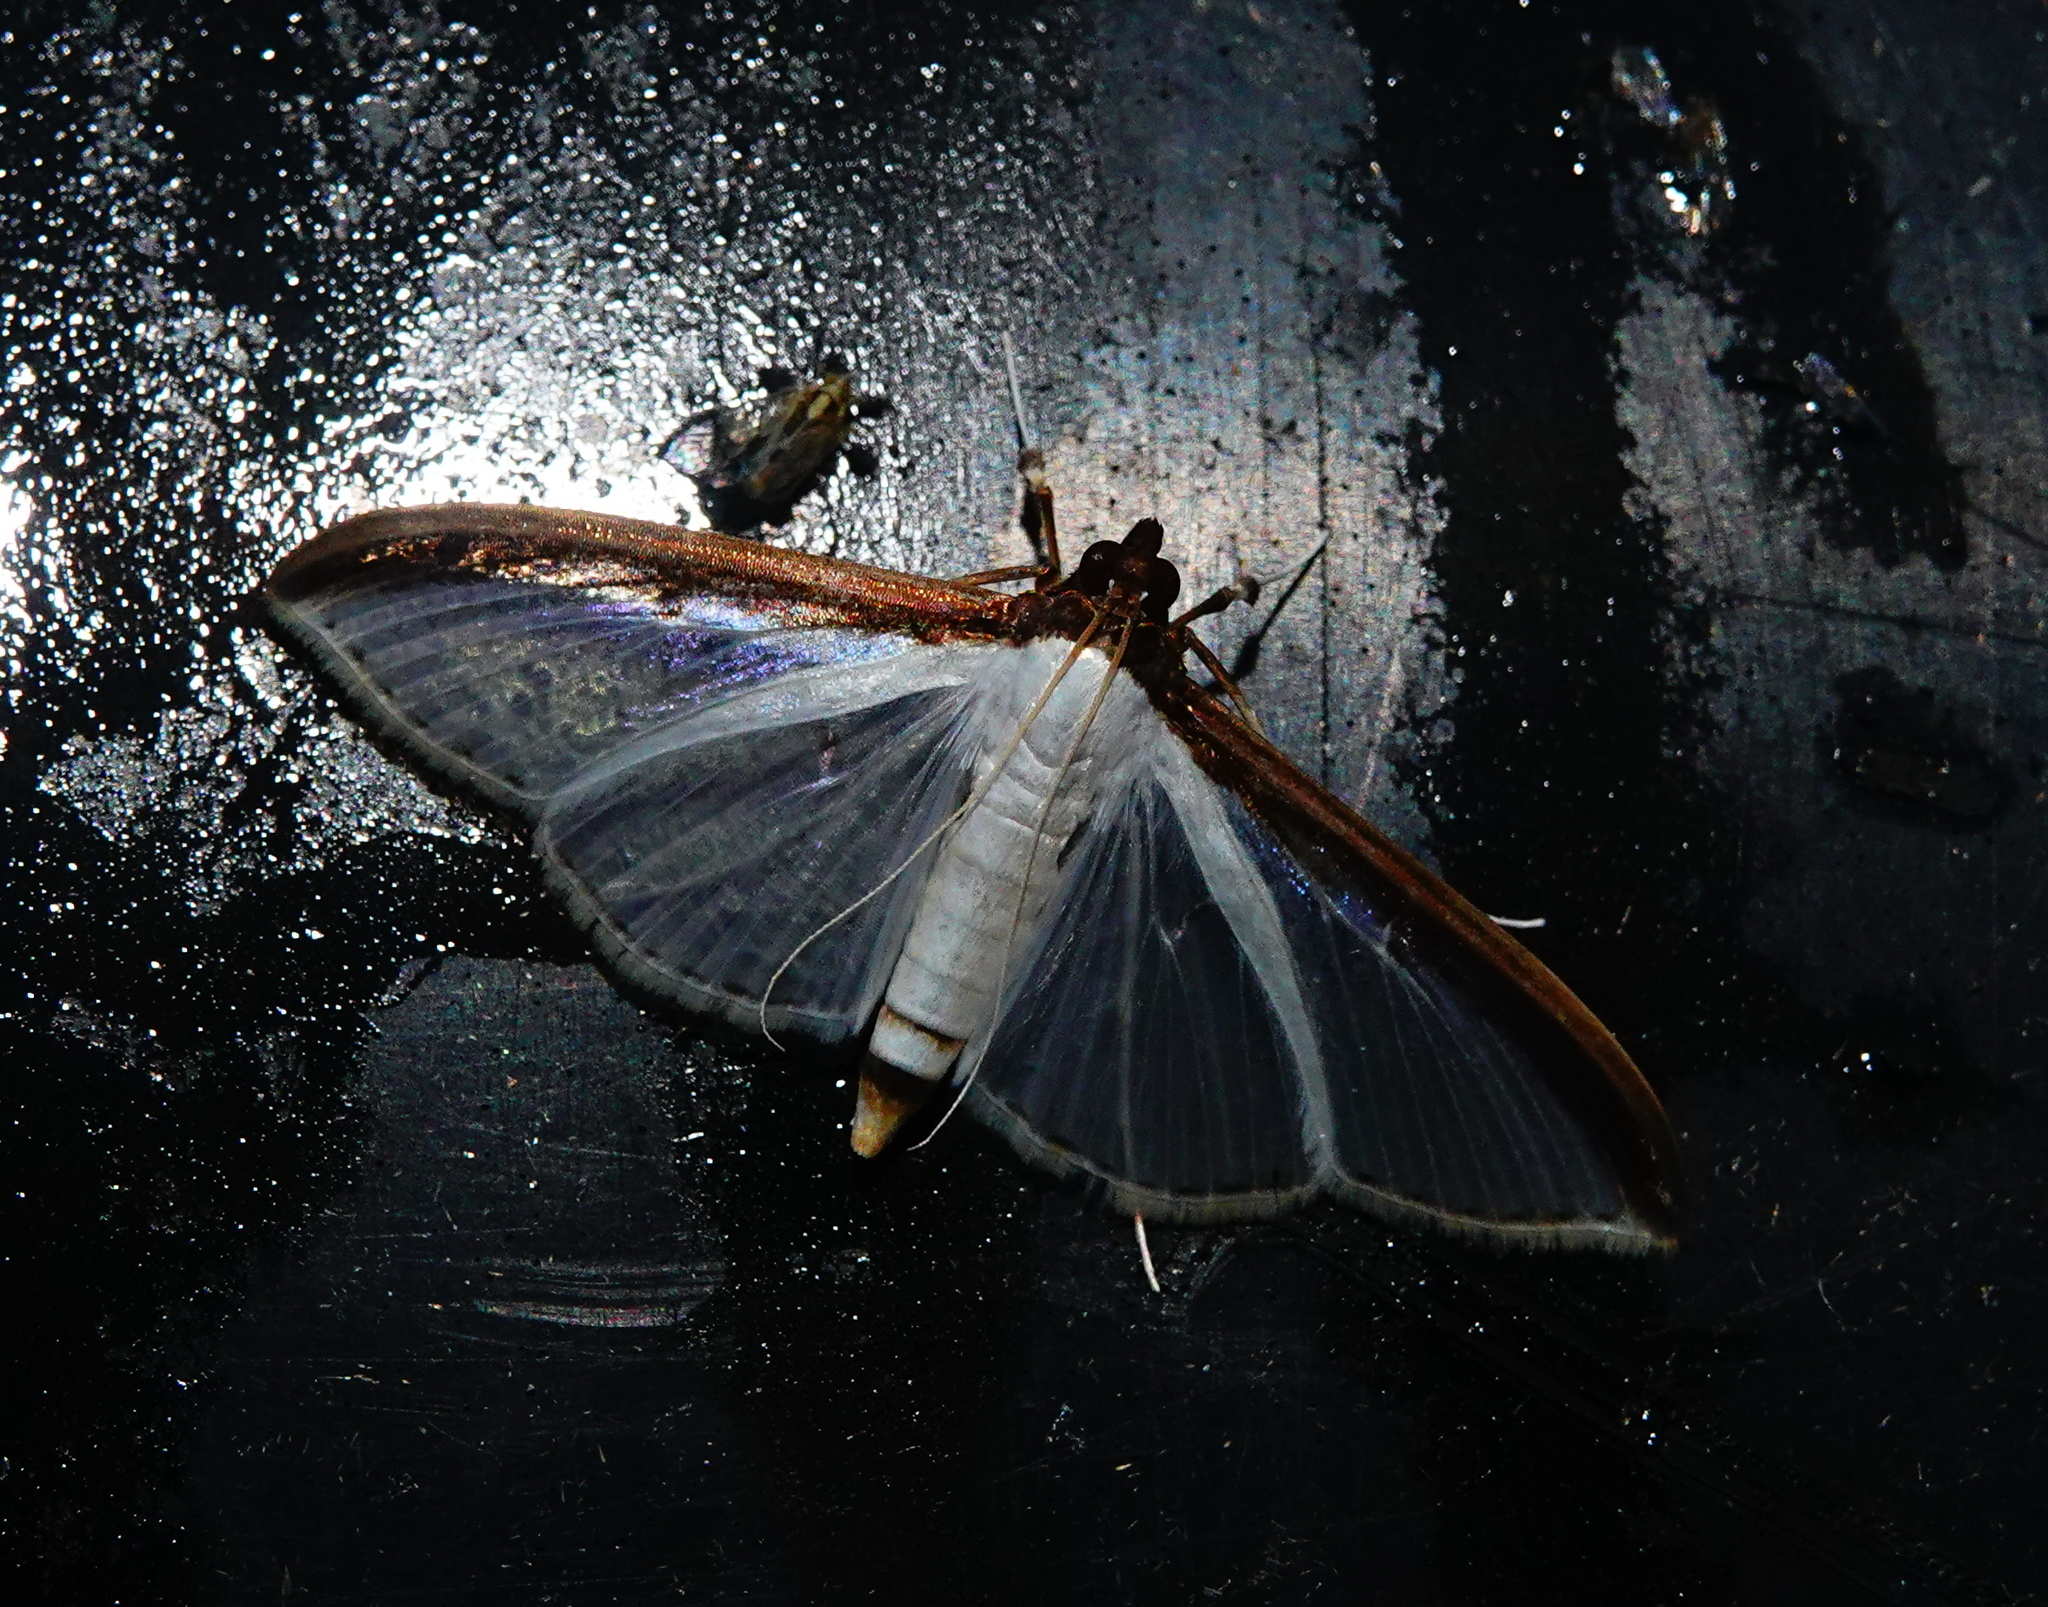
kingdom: Animalia
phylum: Arthropoda
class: Insecta
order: Lepidoptera
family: Crambidae
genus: Cydalima
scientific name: Cydalima laticostalis
